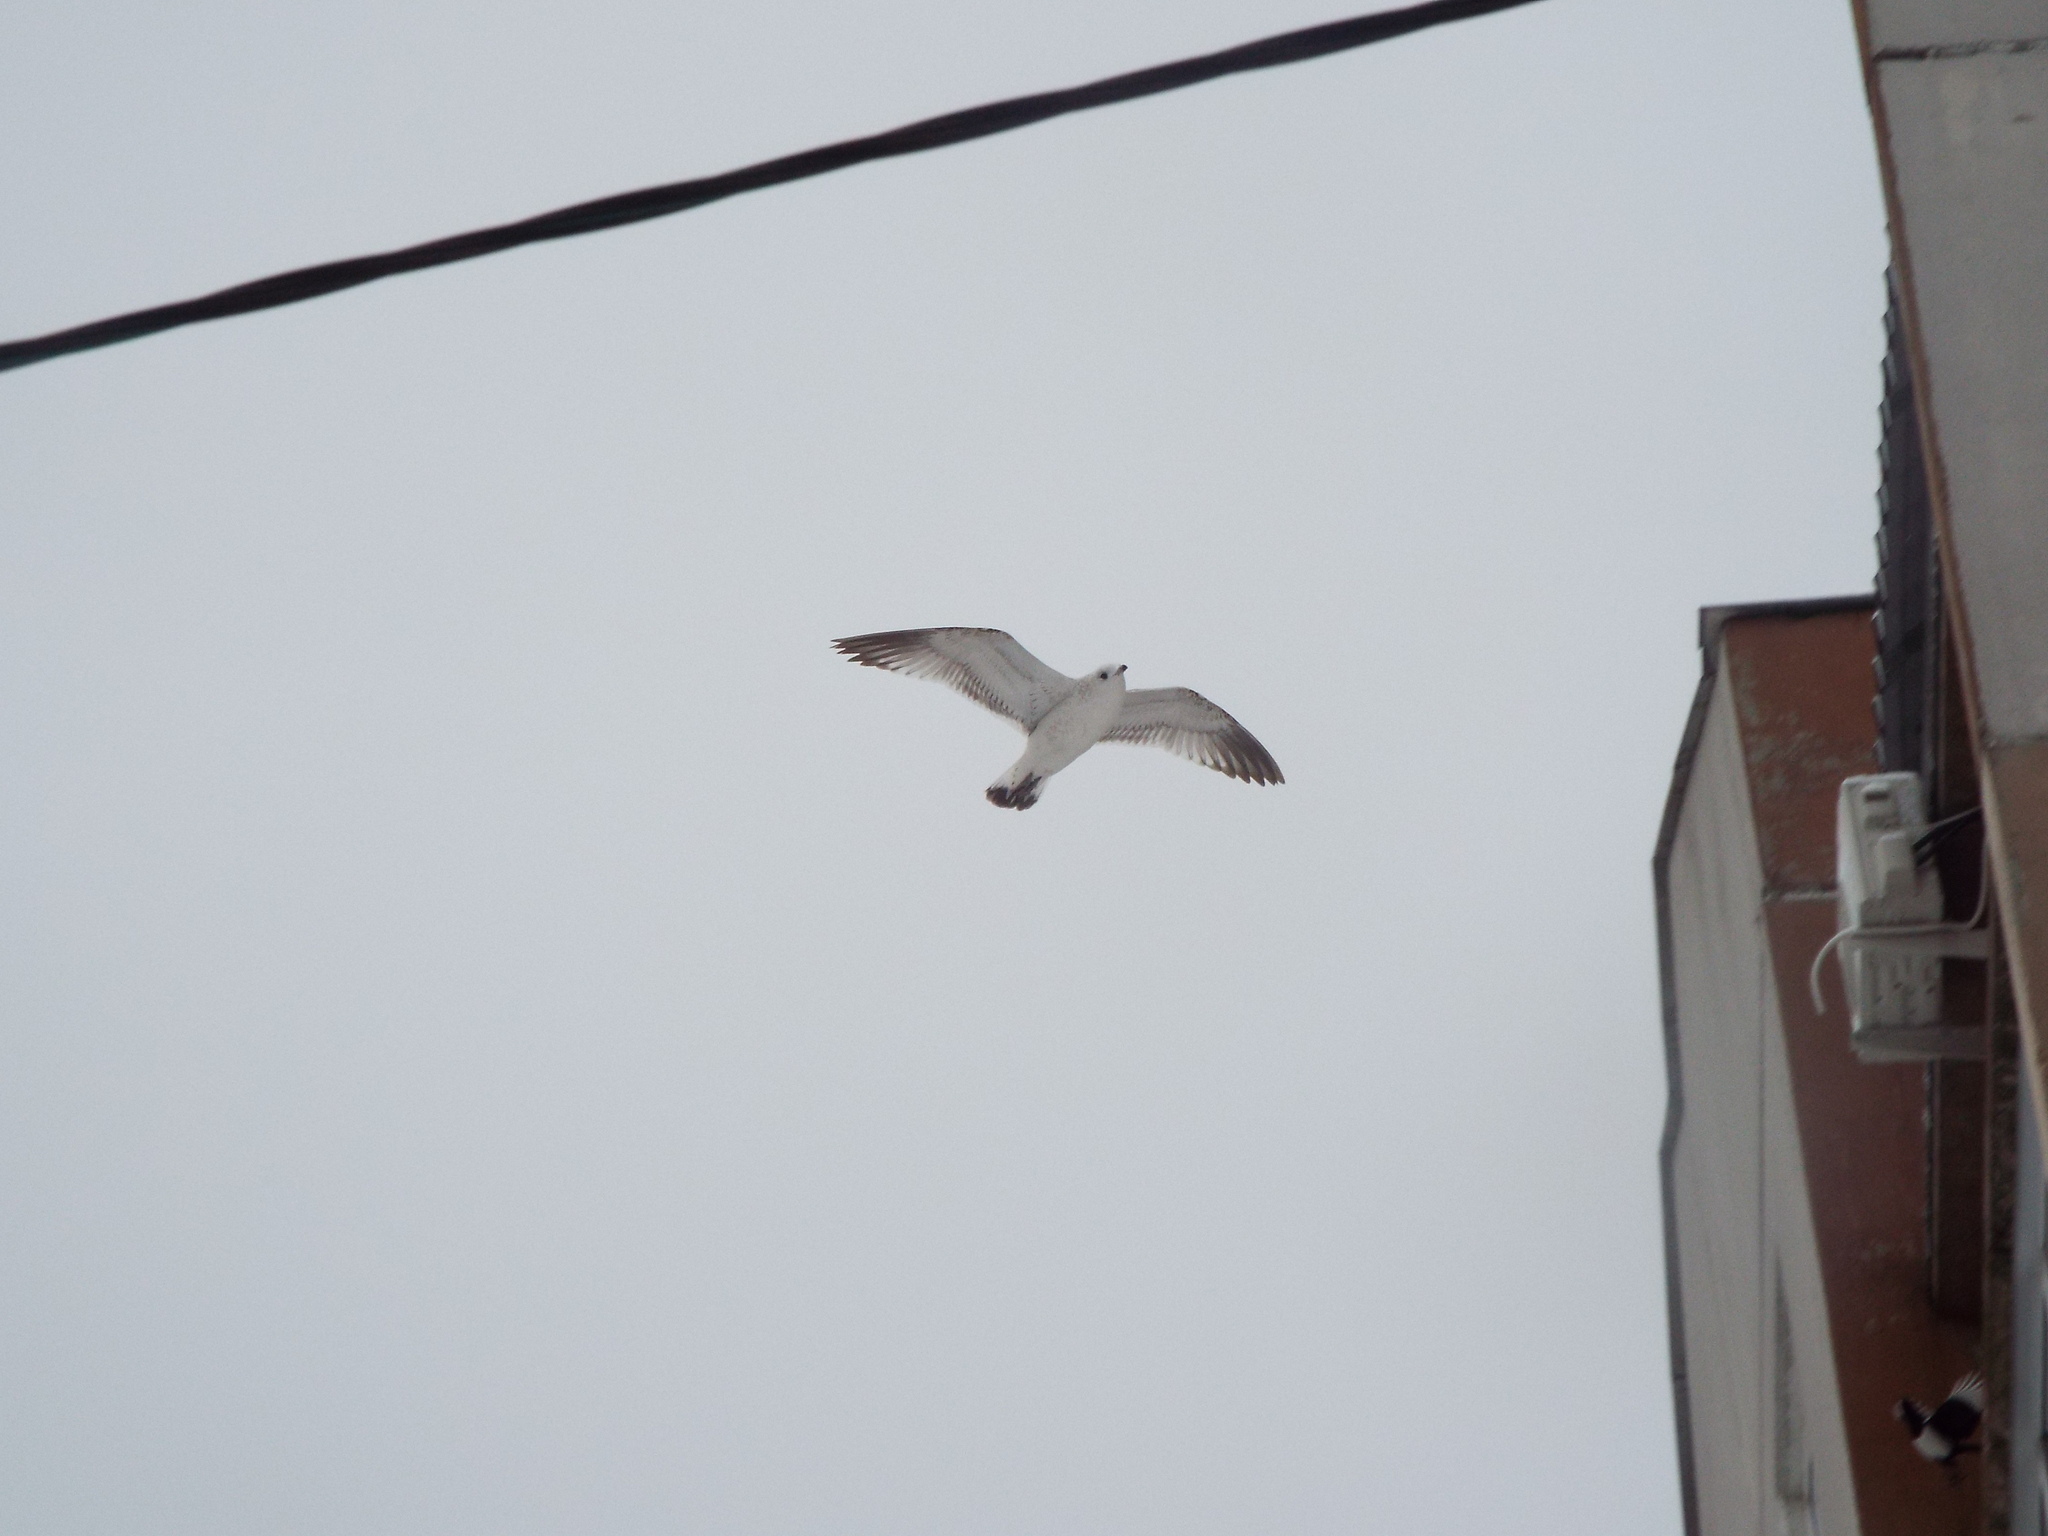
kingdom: Animalia
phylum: Chordata
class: Aves
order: Charadriiformes
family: Laridae
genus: Larus
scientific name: Larus canus
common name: Mew gull
